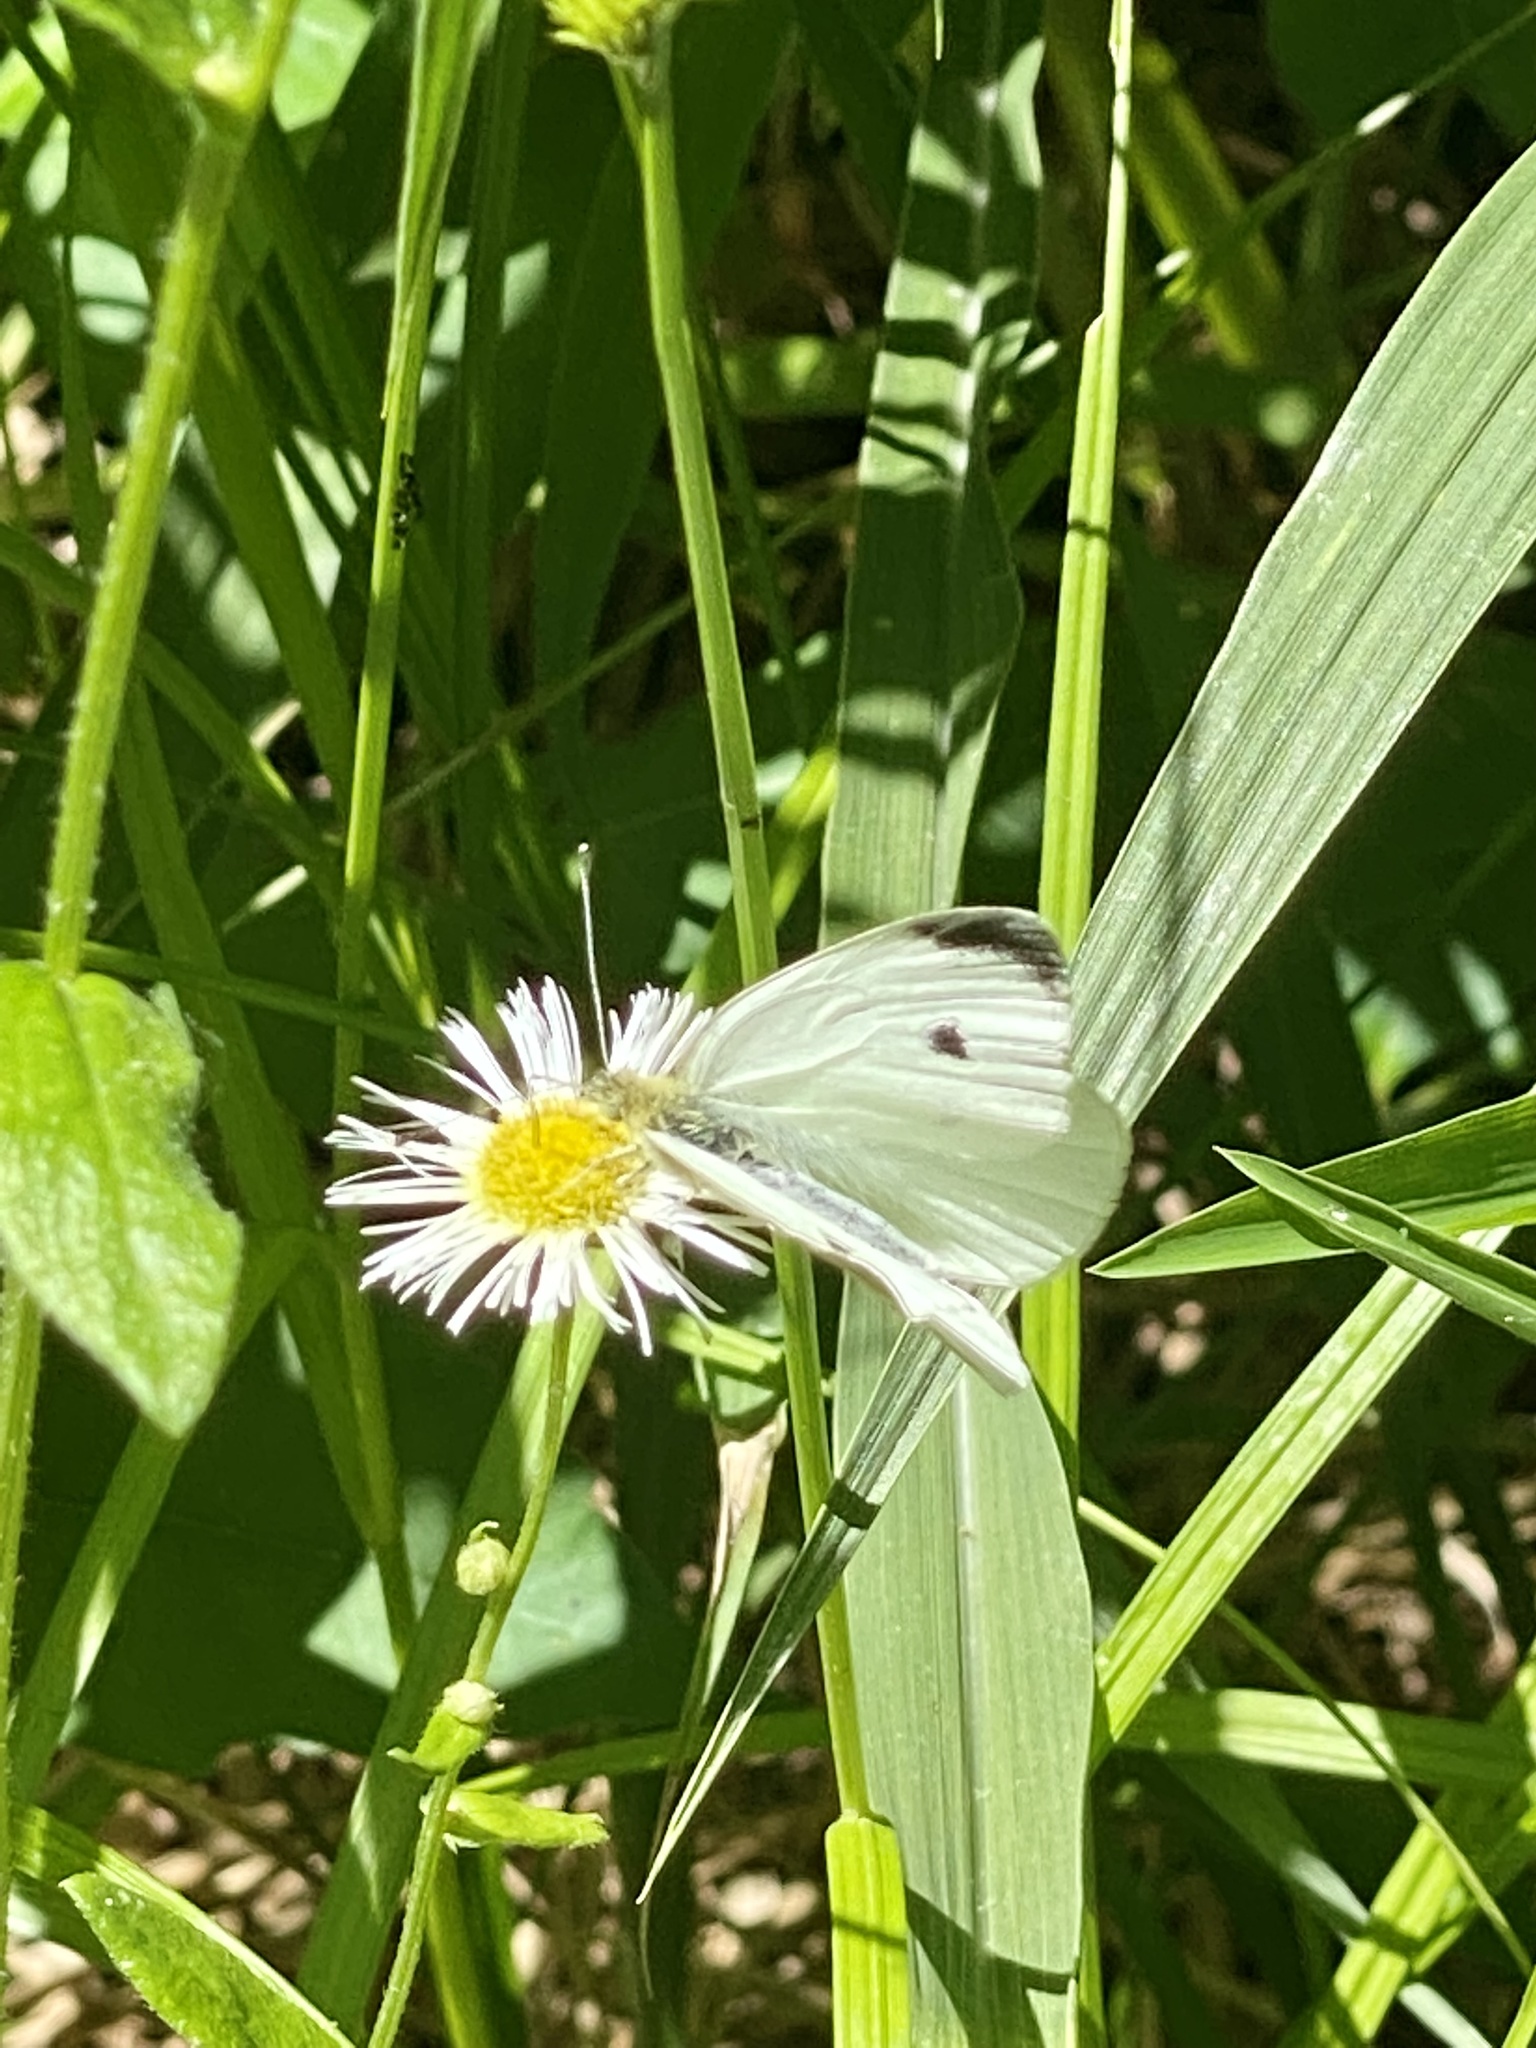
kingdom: Animalia
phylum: Arthropoda
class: Insecta
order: Lepidoptera
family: Pieridae
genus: Pieris
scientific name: Pieris rapae
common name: Small white
